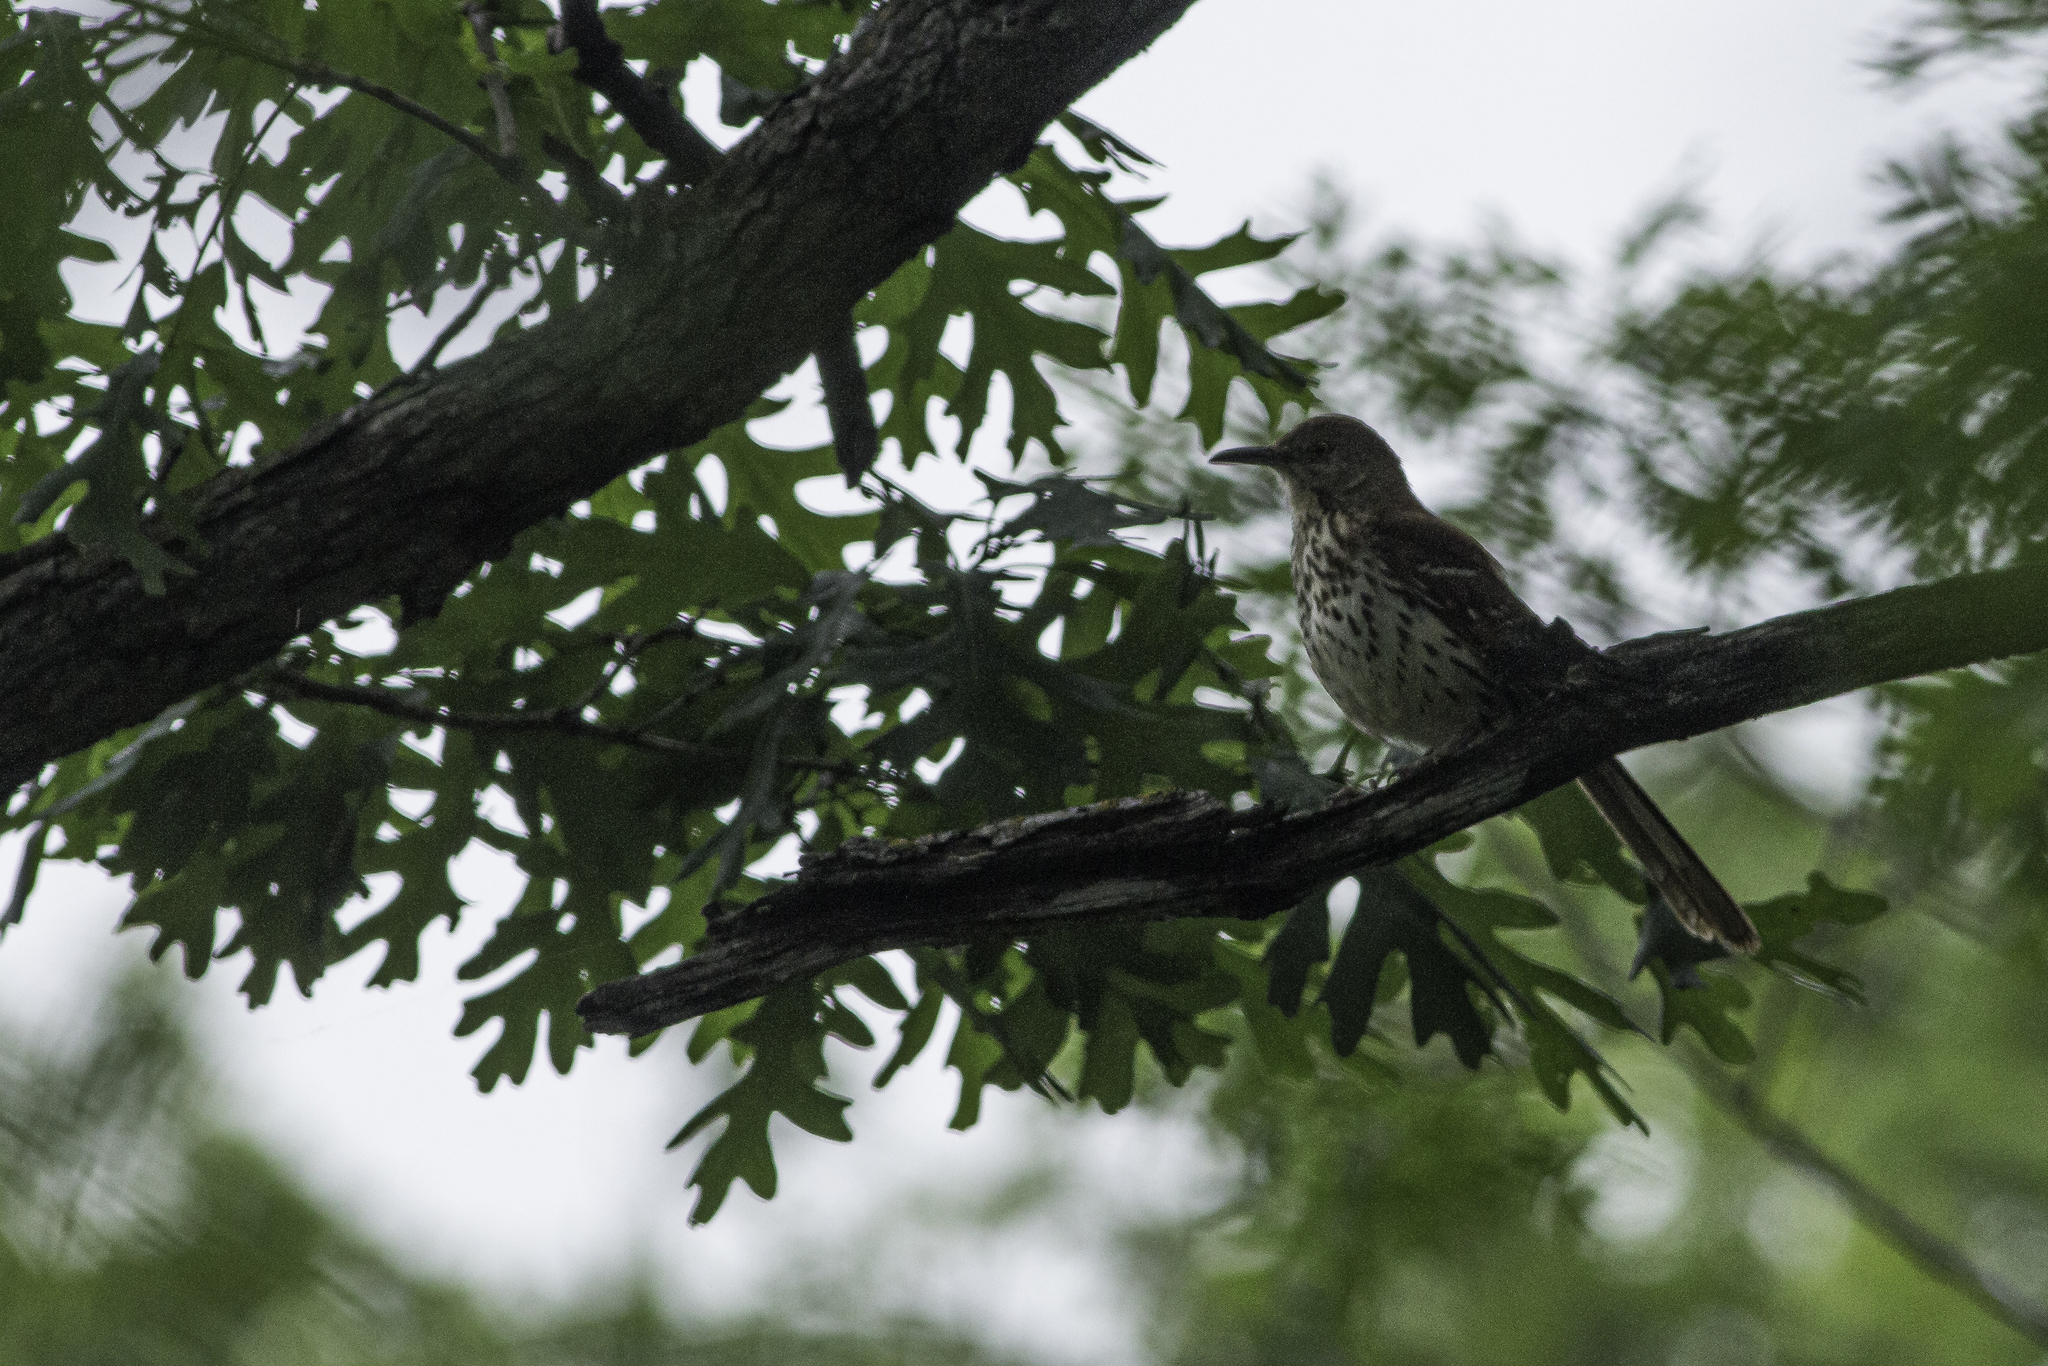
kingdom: Animalia
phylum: Chordata
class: Aves
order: Passeriformes
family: Mimidae
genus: Toxostoma
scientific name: Toxostoma rufum
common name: Brown thrasher
